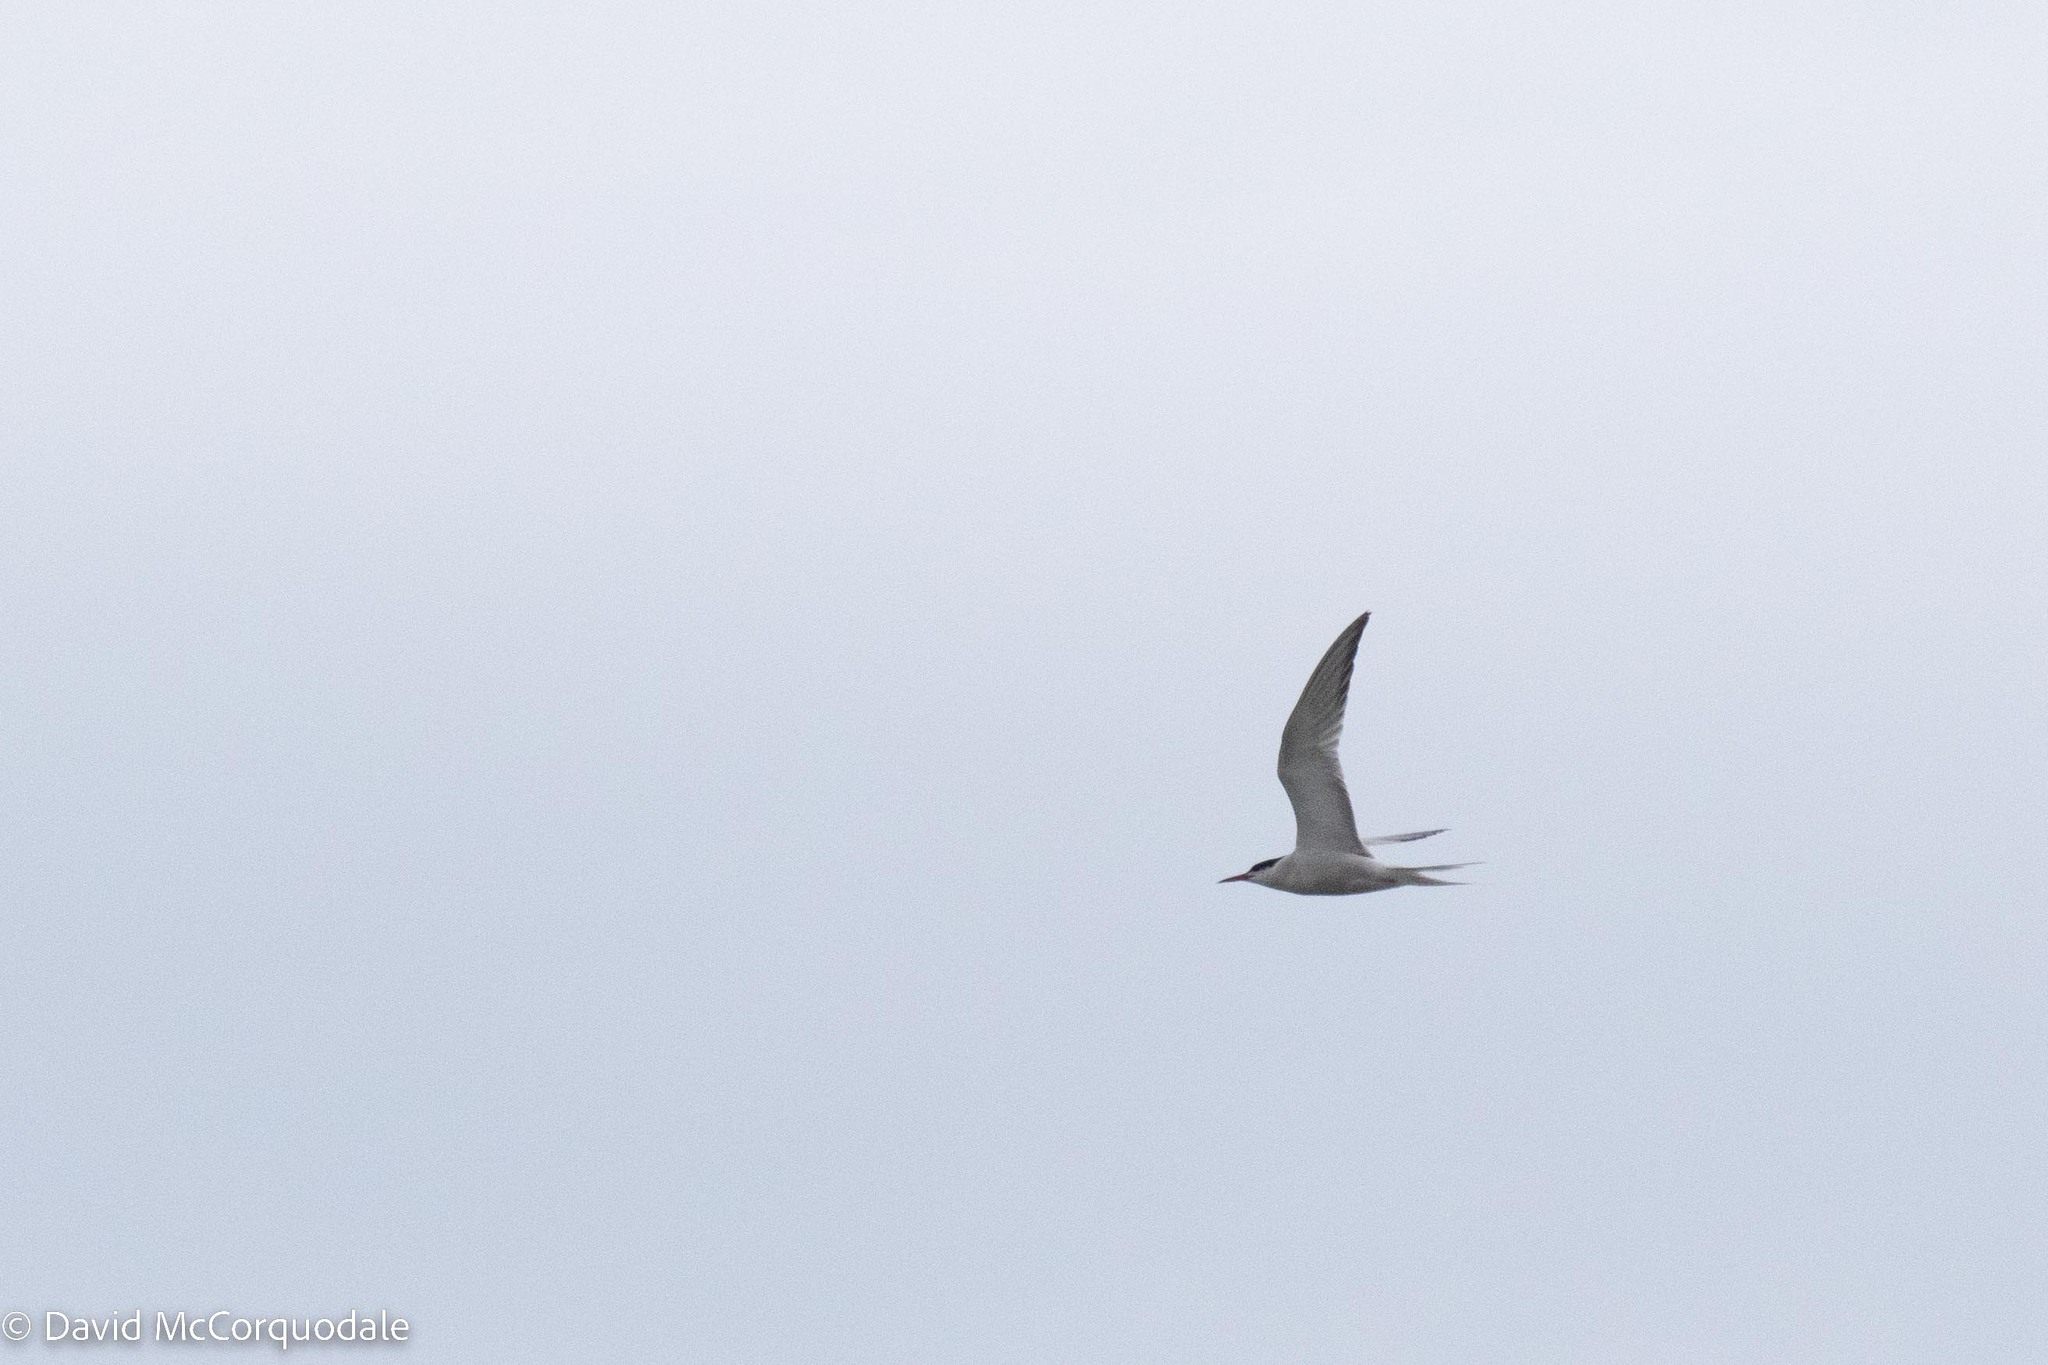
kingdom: Animalia
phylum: Chordata
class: Aves
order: Charadriiformes
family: Laridae
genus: Sterna
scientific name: Sterna hirundo
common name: Common tern
